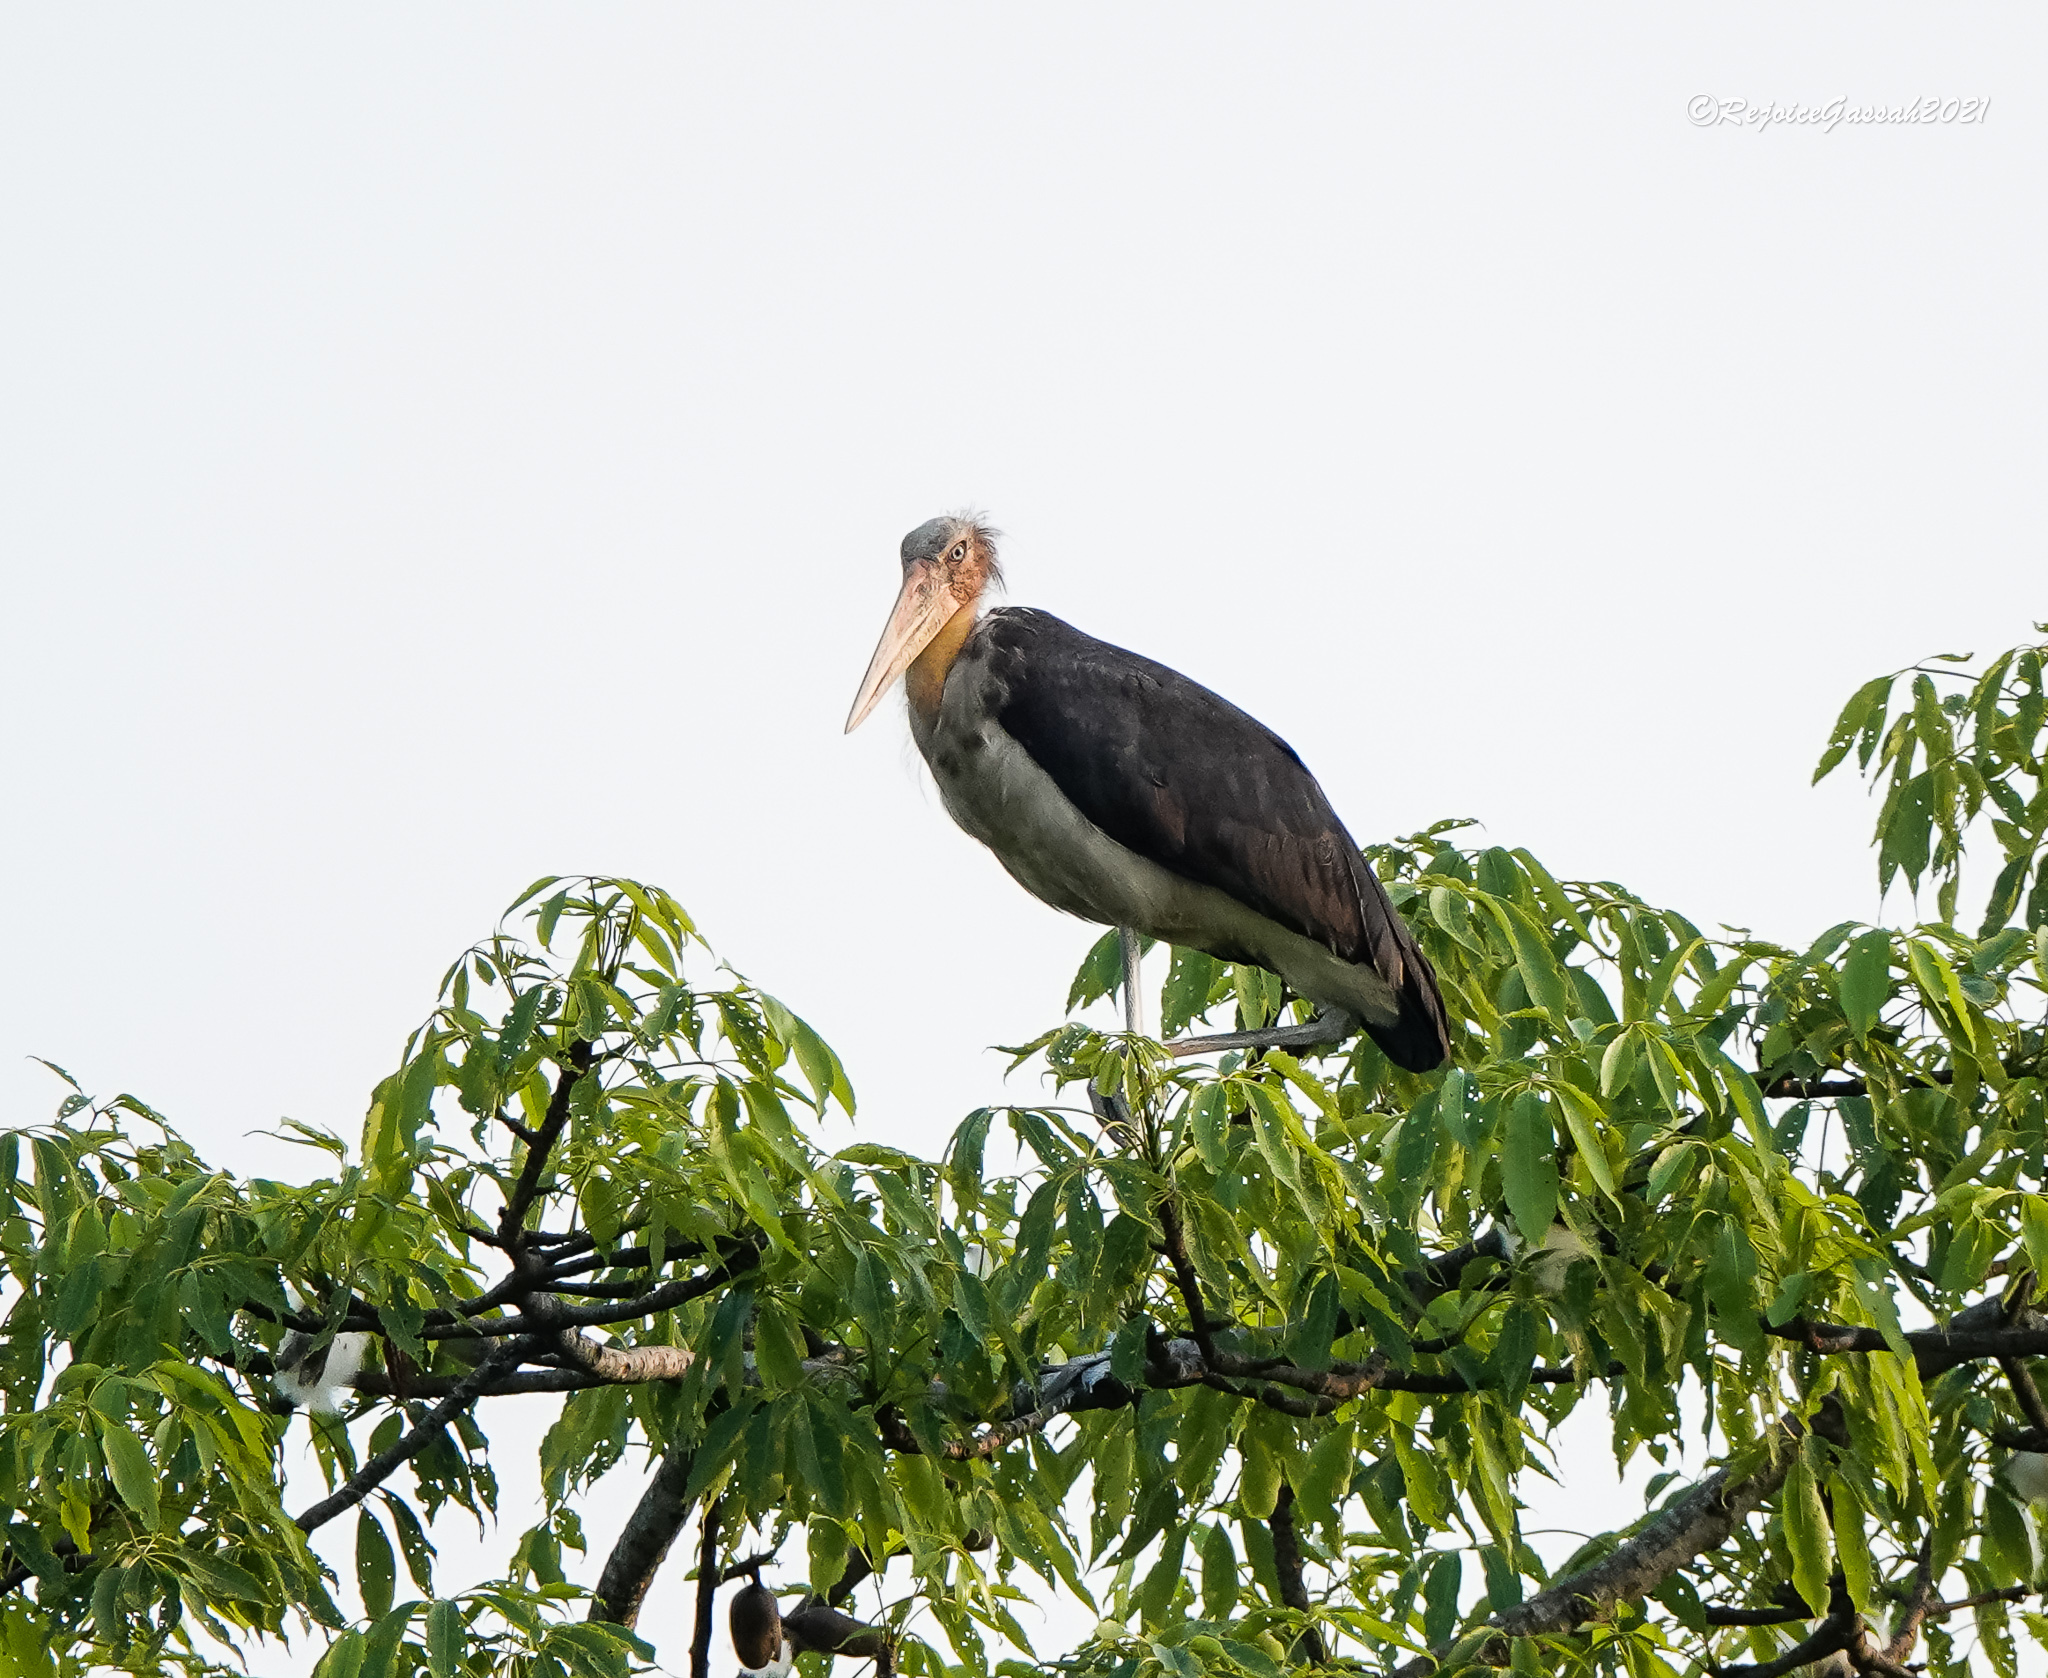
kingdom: Animalia
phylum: Chordata
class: Aves
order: Ciconiiformes
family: Ciconiidae
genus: Leptoptilos
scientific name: Leptoptilos javanicus
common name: Lesser adjutant
